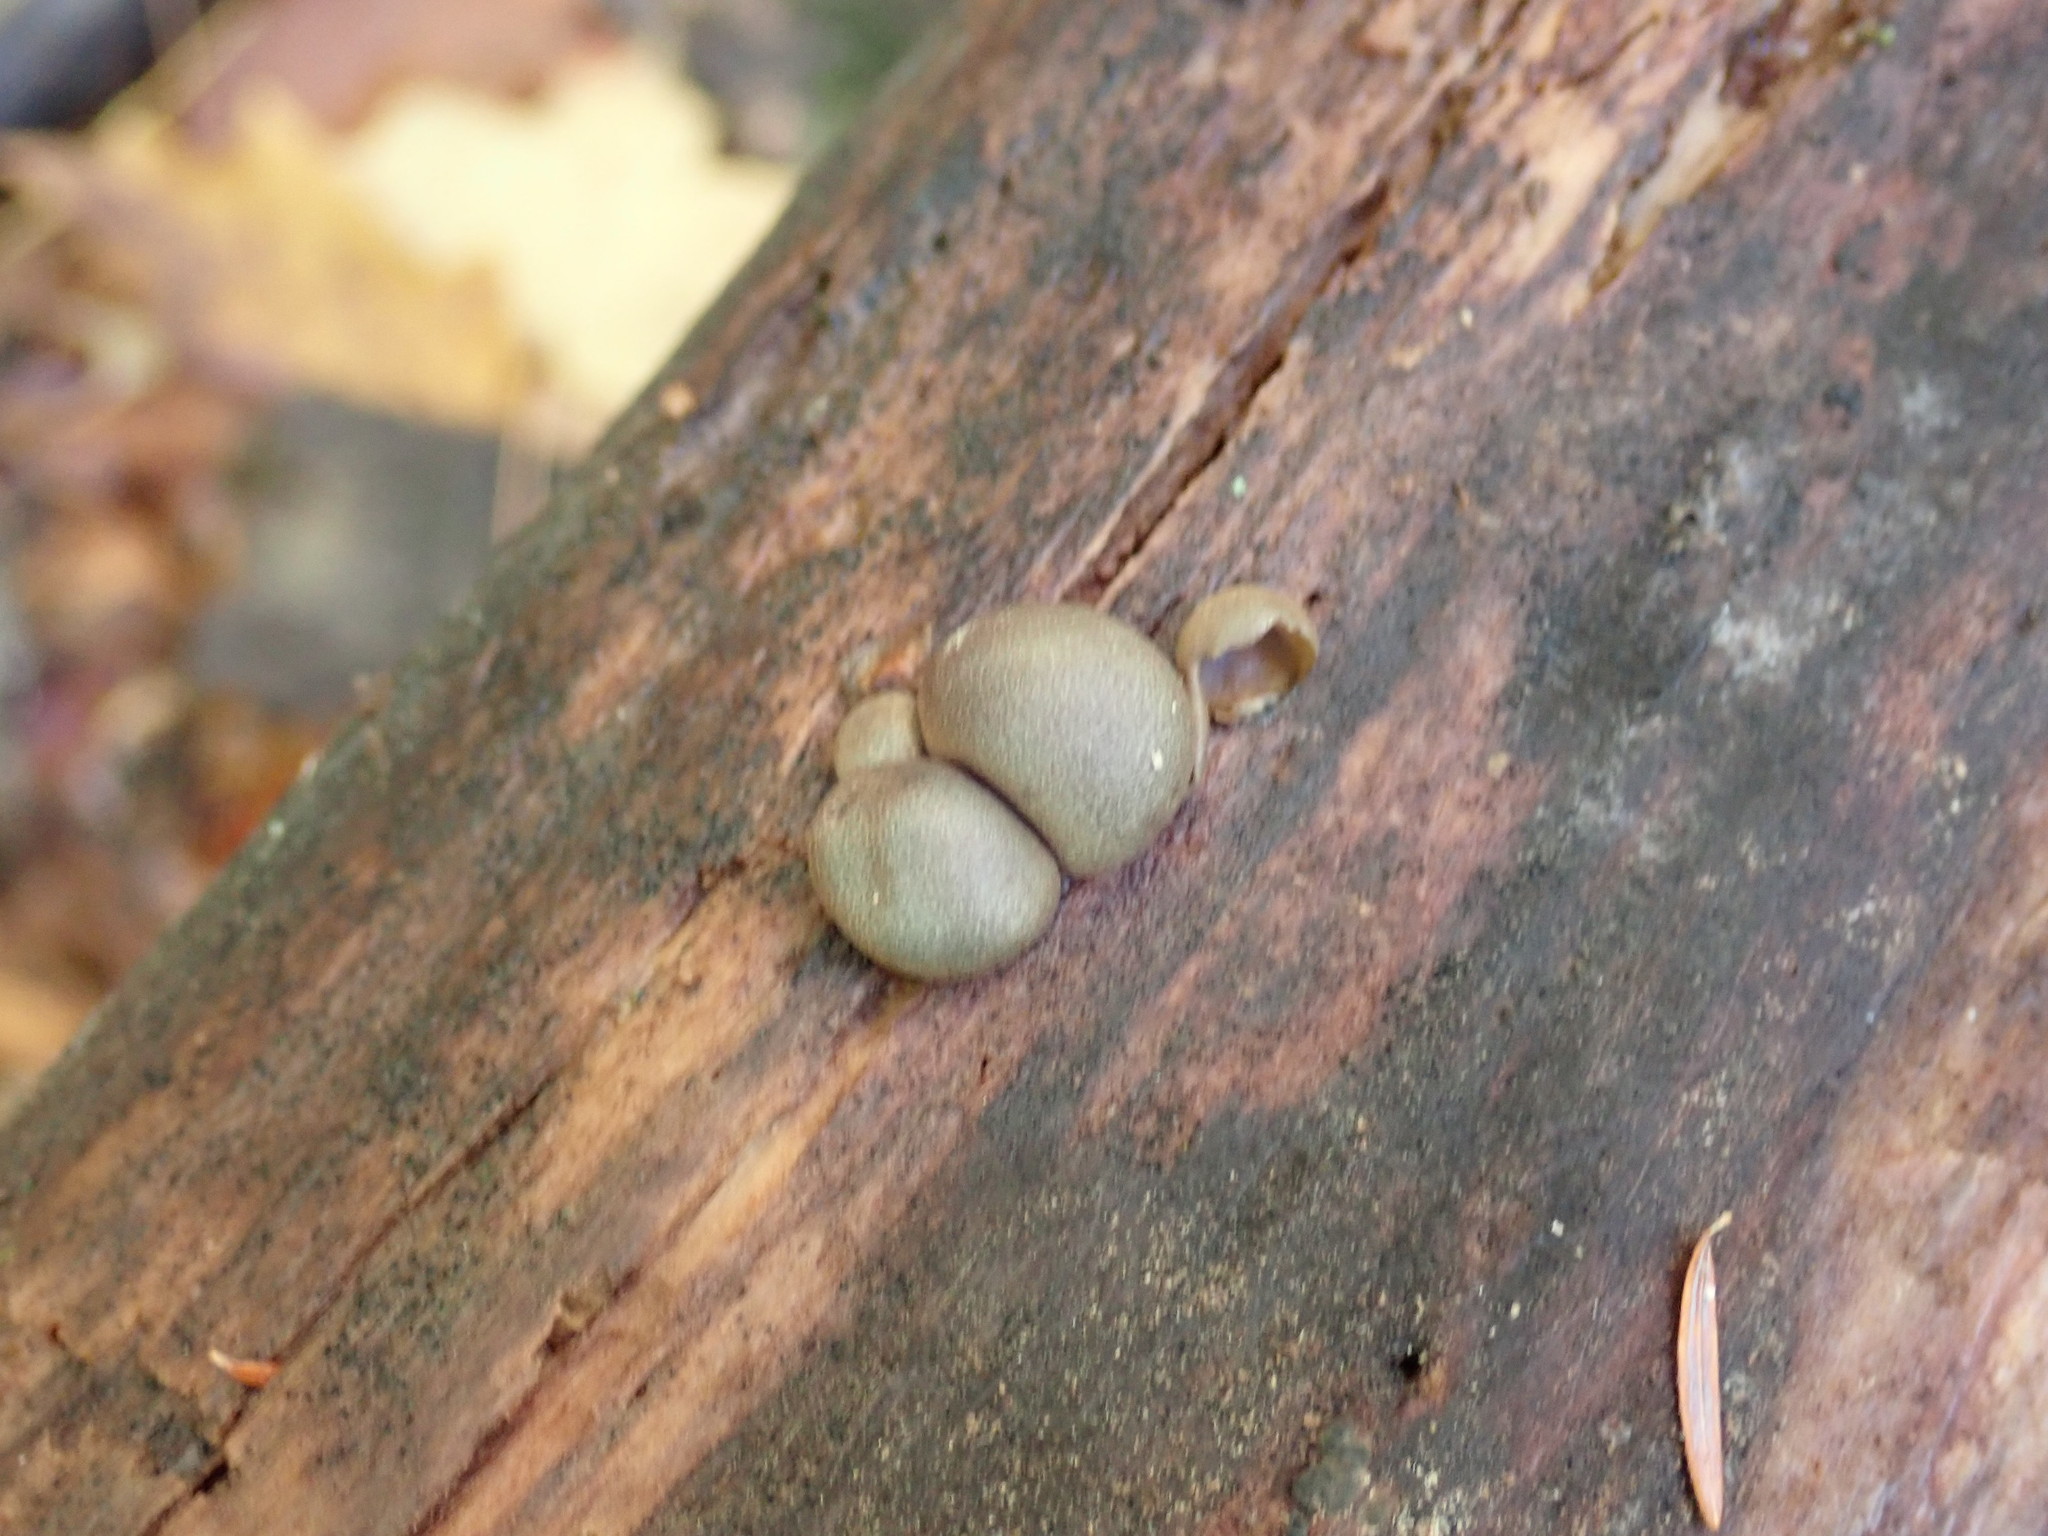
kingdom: Protozoa
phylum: Mycetozoa
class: Myxomycetes
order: Cribrariales
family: Tubiferaceae
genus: Lycogala
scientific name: Lycogala epidendrum
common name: Wolf's milk
